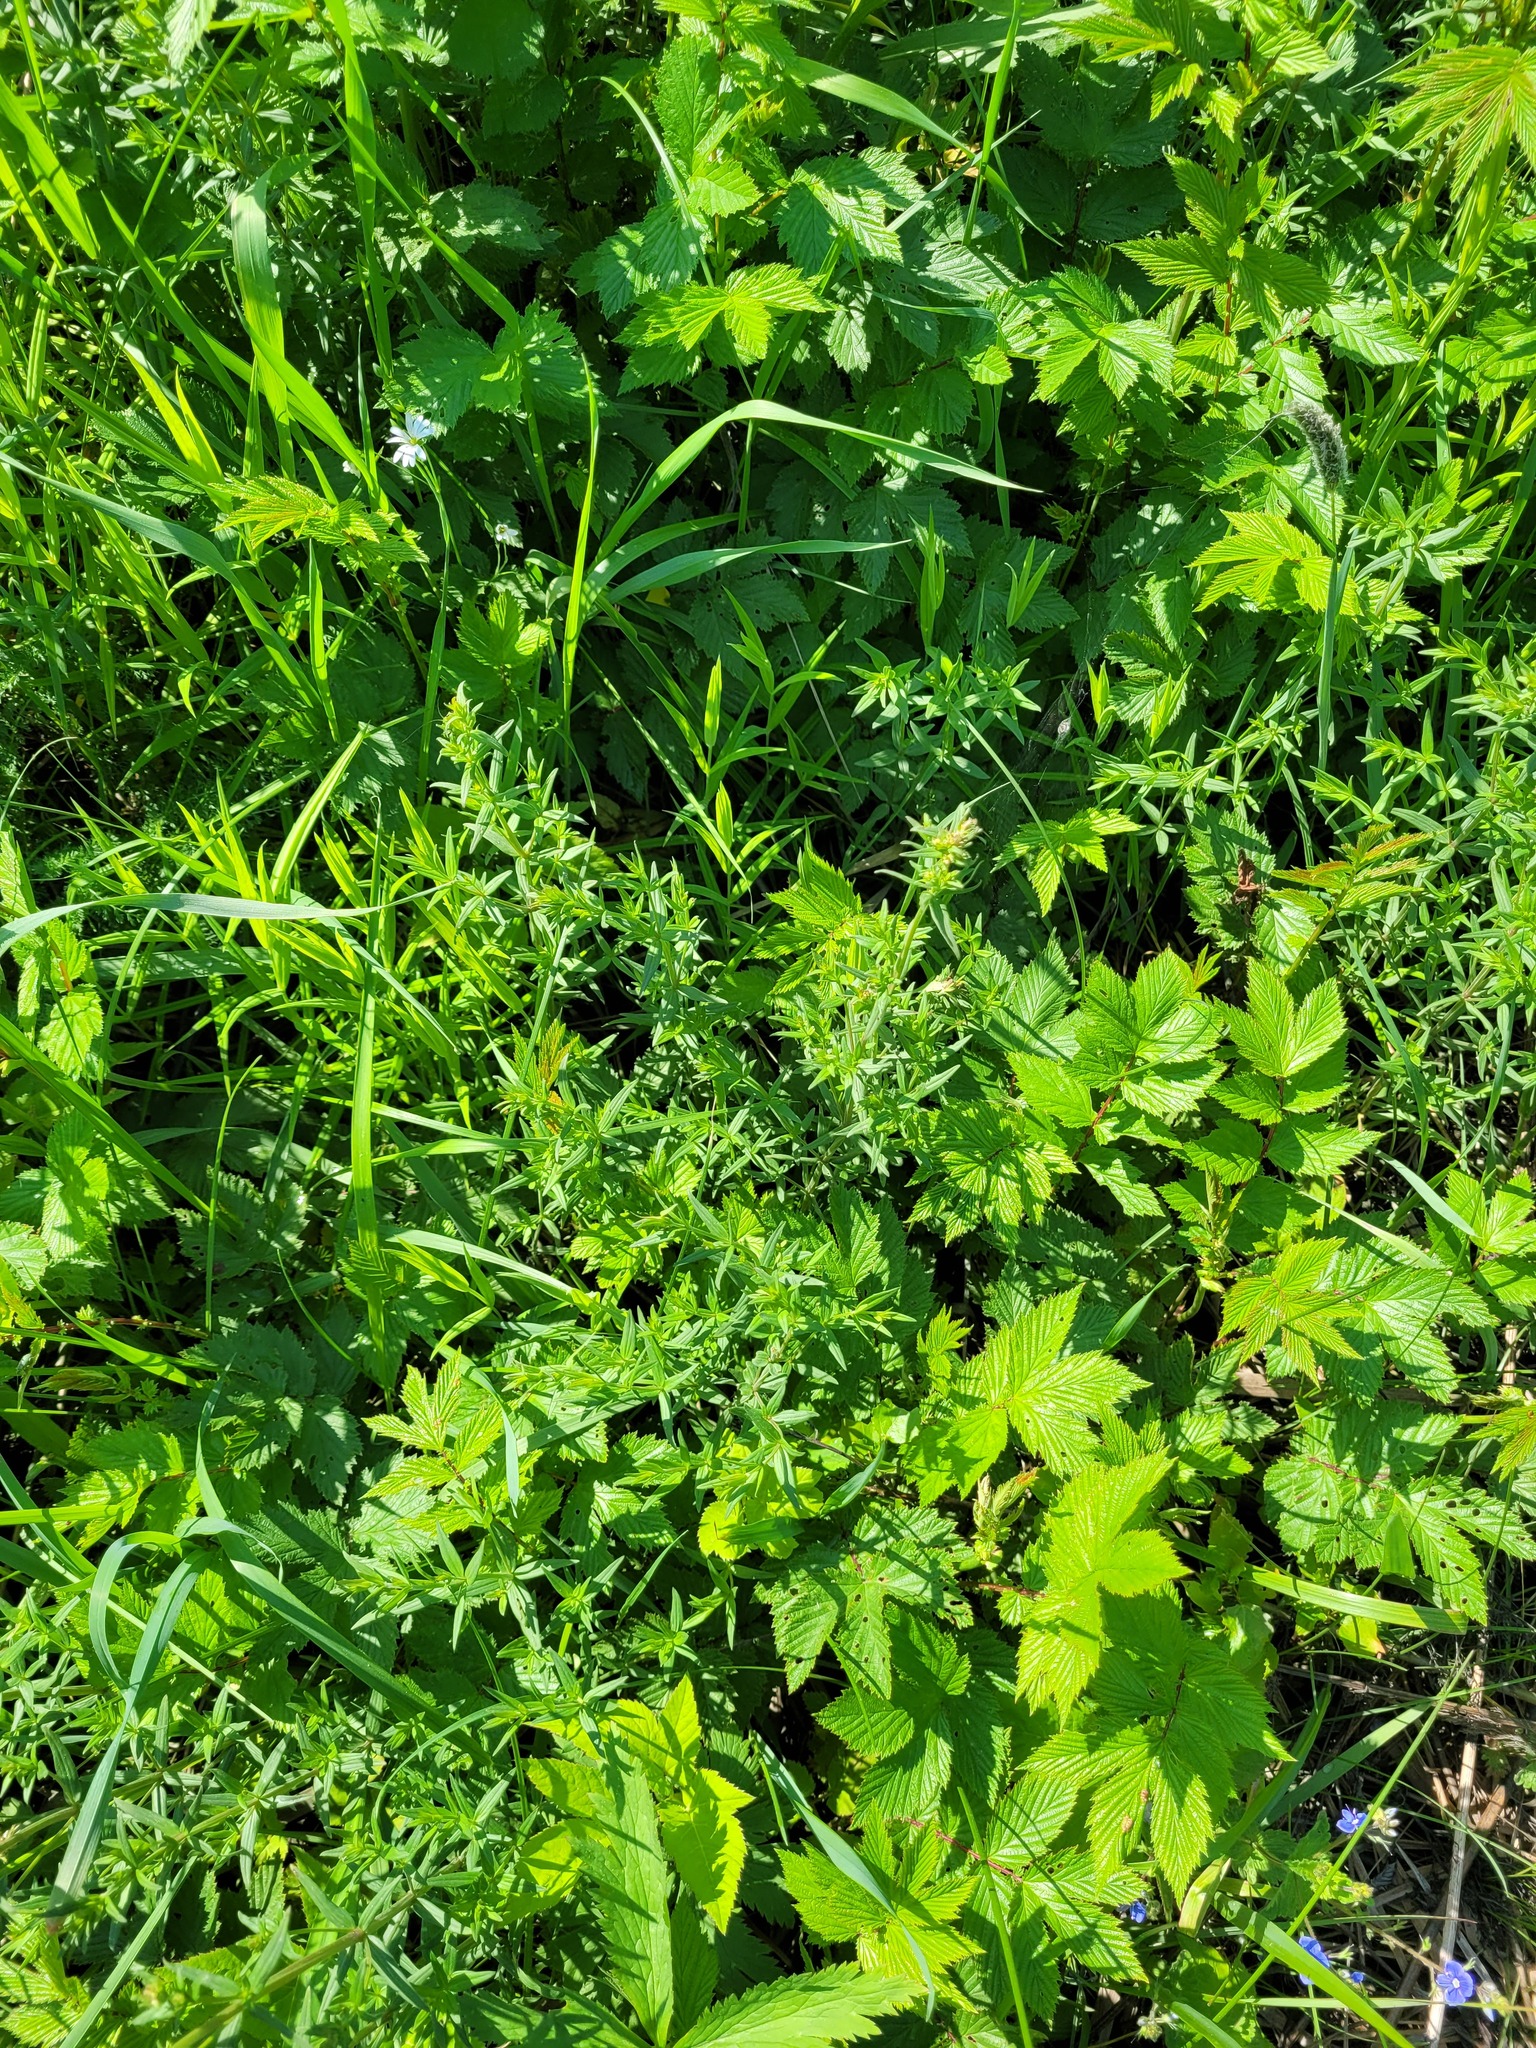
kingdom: Plantae
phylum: Tracheophyta
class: Magnoliopsida
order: Gentianales
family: Rubiaceae
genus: Galium
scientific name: Galium boreale
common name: Northern bedstraw
